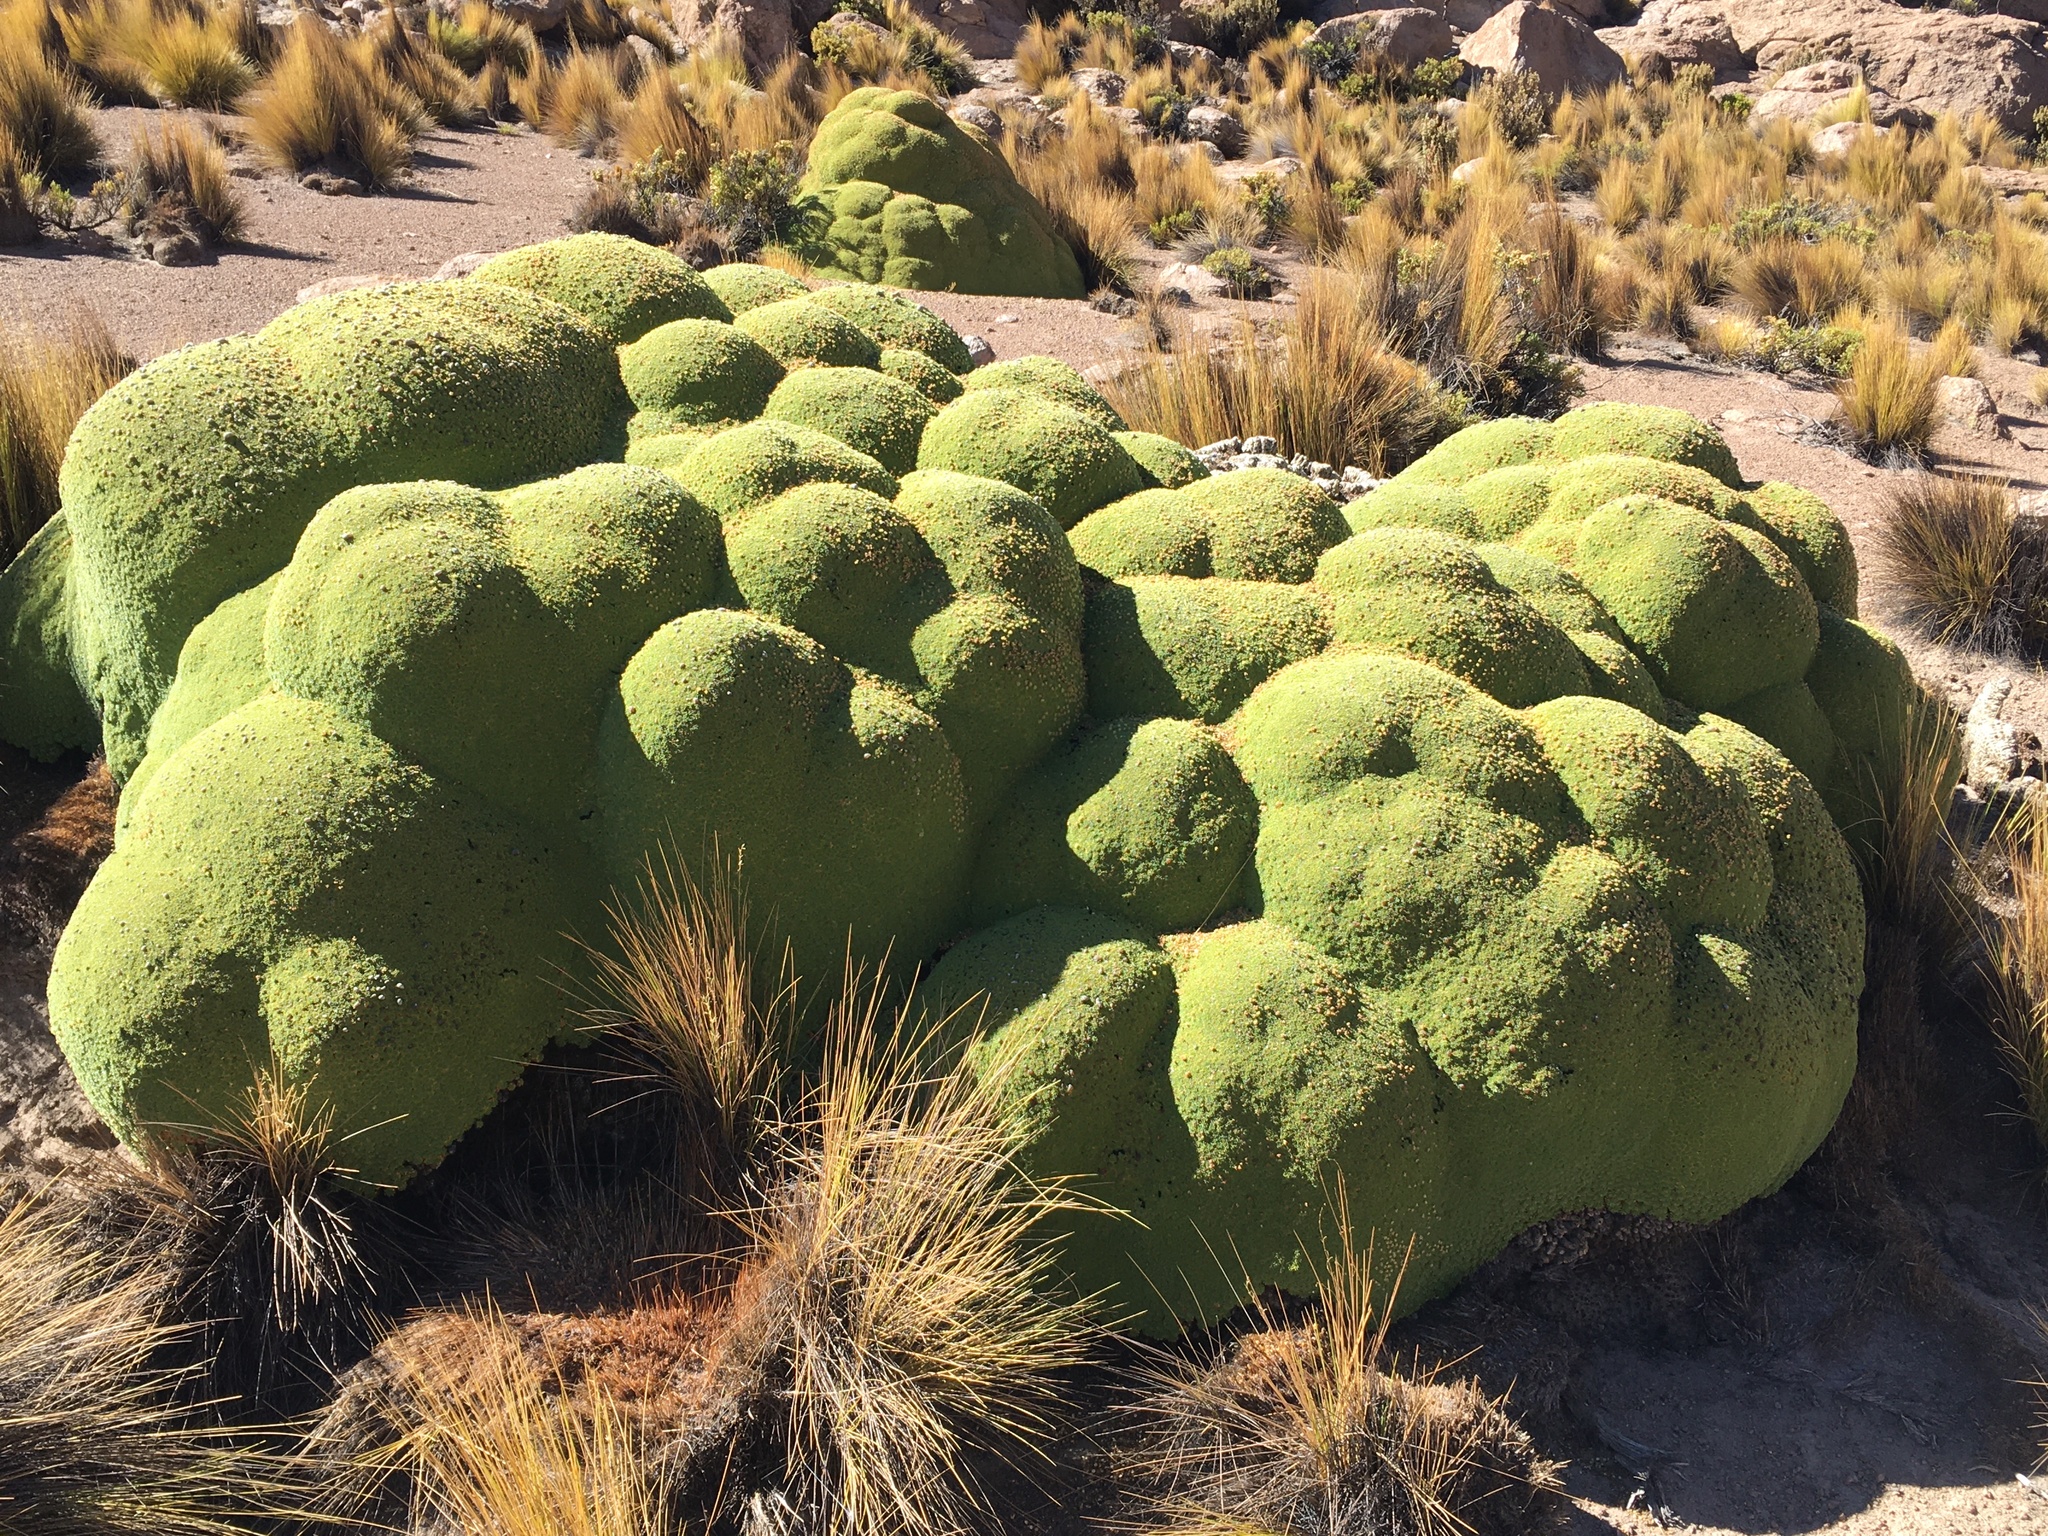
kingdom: Plantae
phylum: Tracheophyta
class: Magnoliopsida
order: Apiales
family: Apiaceae
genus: Azorella
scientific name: Azorella compacta
